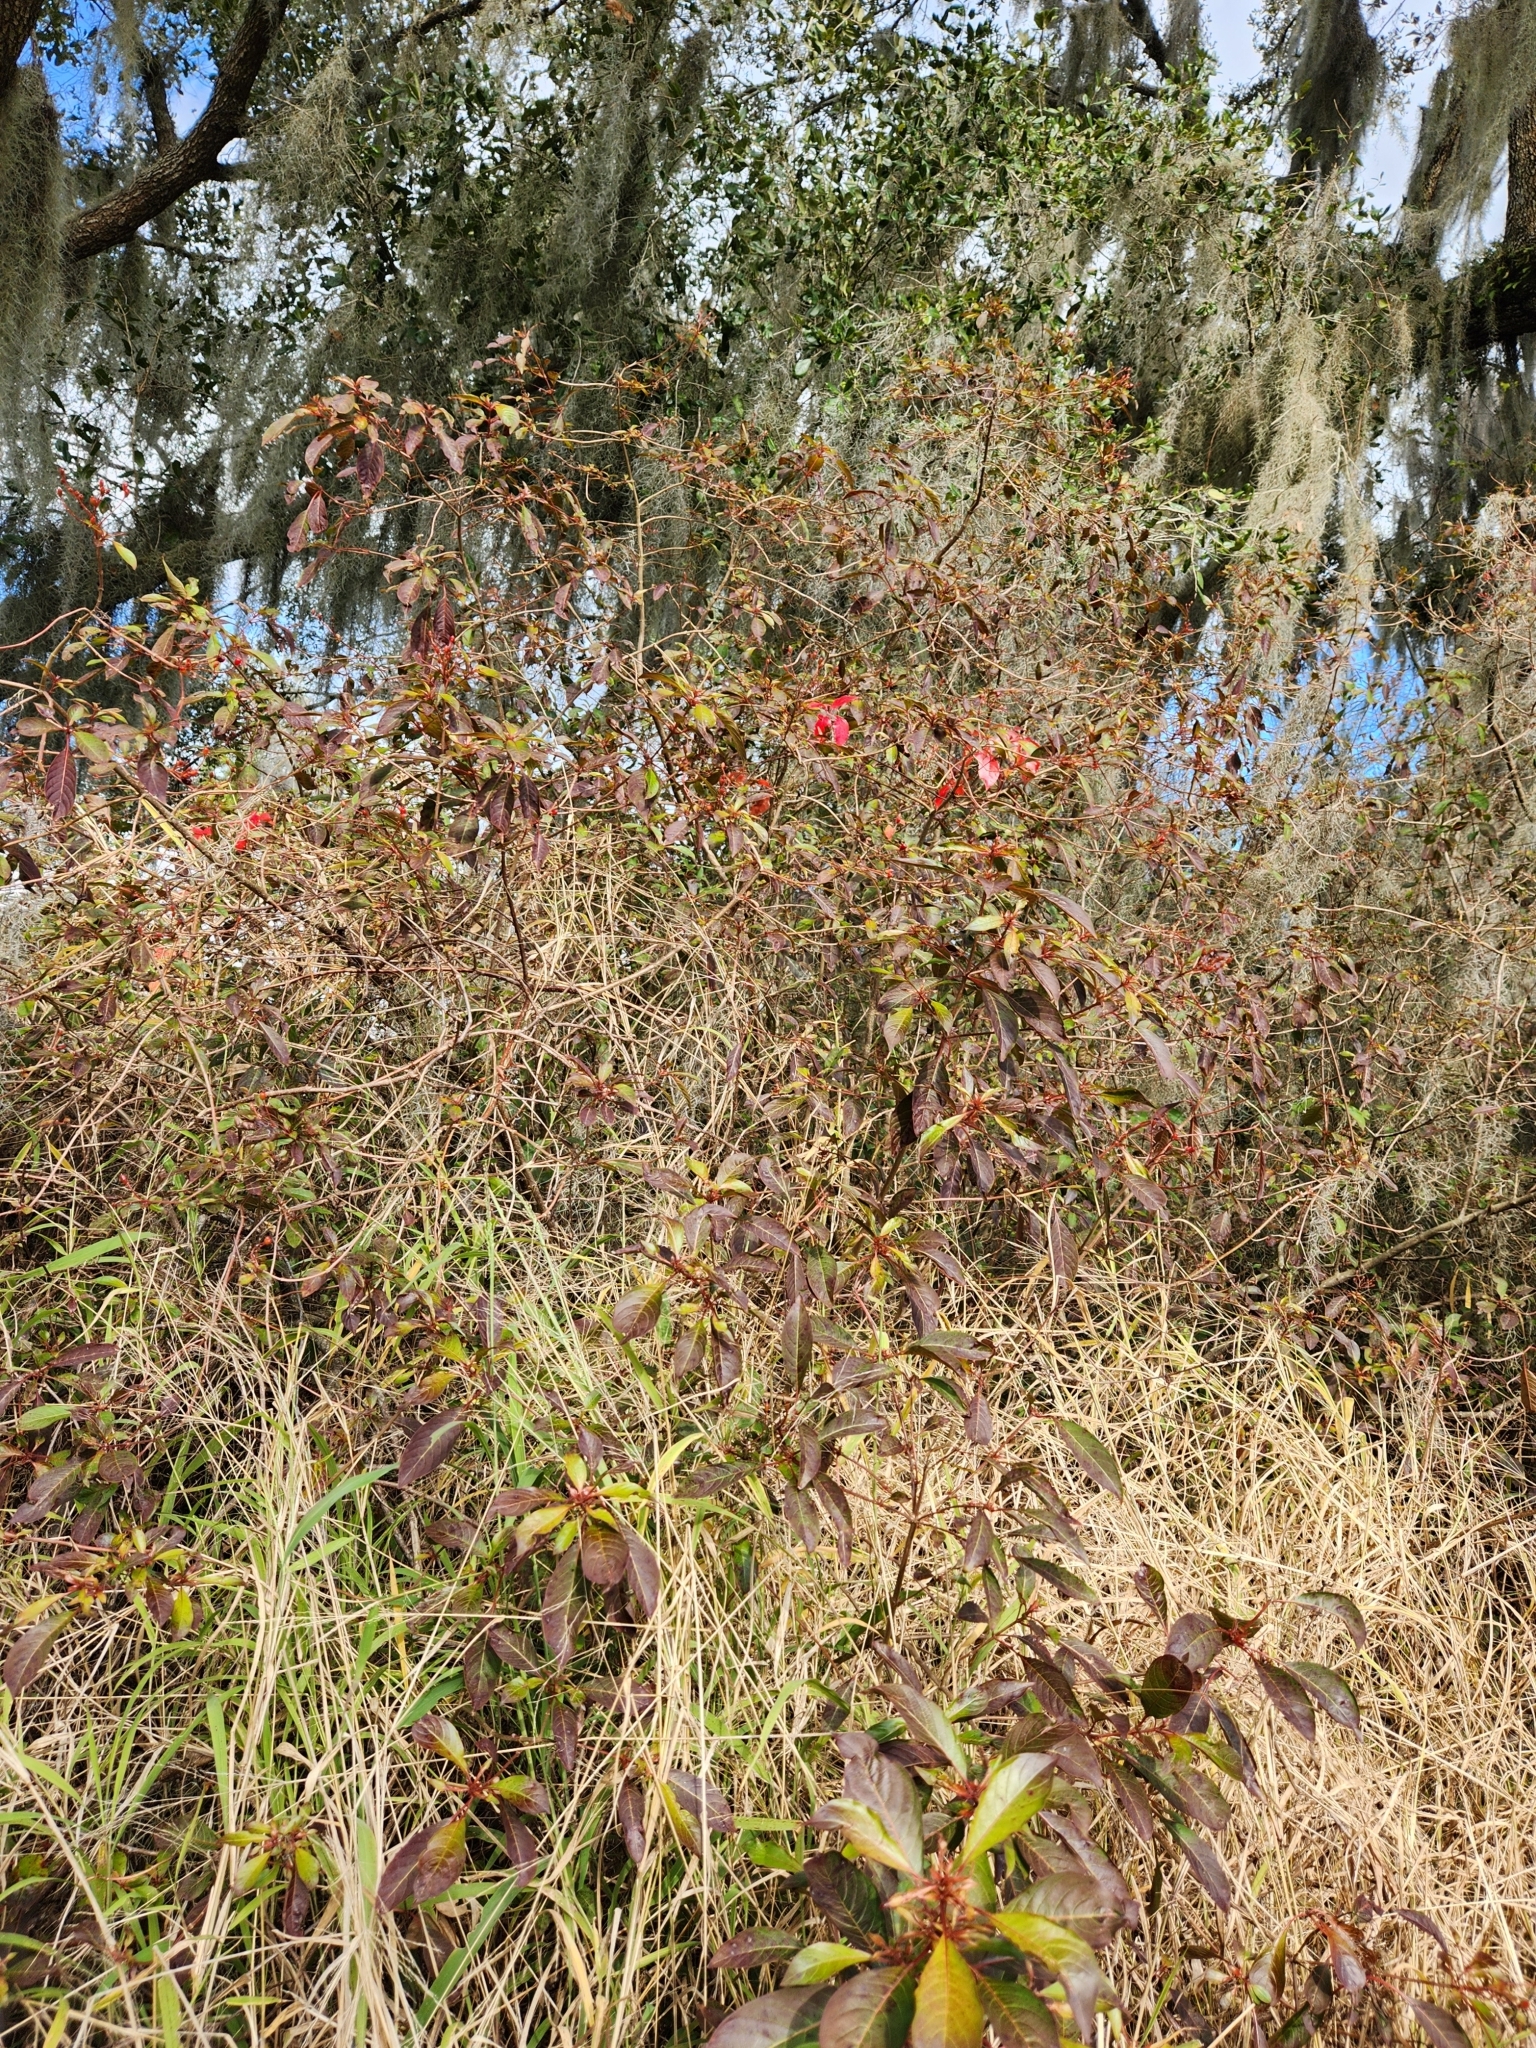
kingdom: Plantae
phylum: Tracheophyta
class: Magnoliopsida
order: Gentianales
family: Rubiaceae
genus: Hamelia
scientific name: Hamelia patens
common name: Redhead
